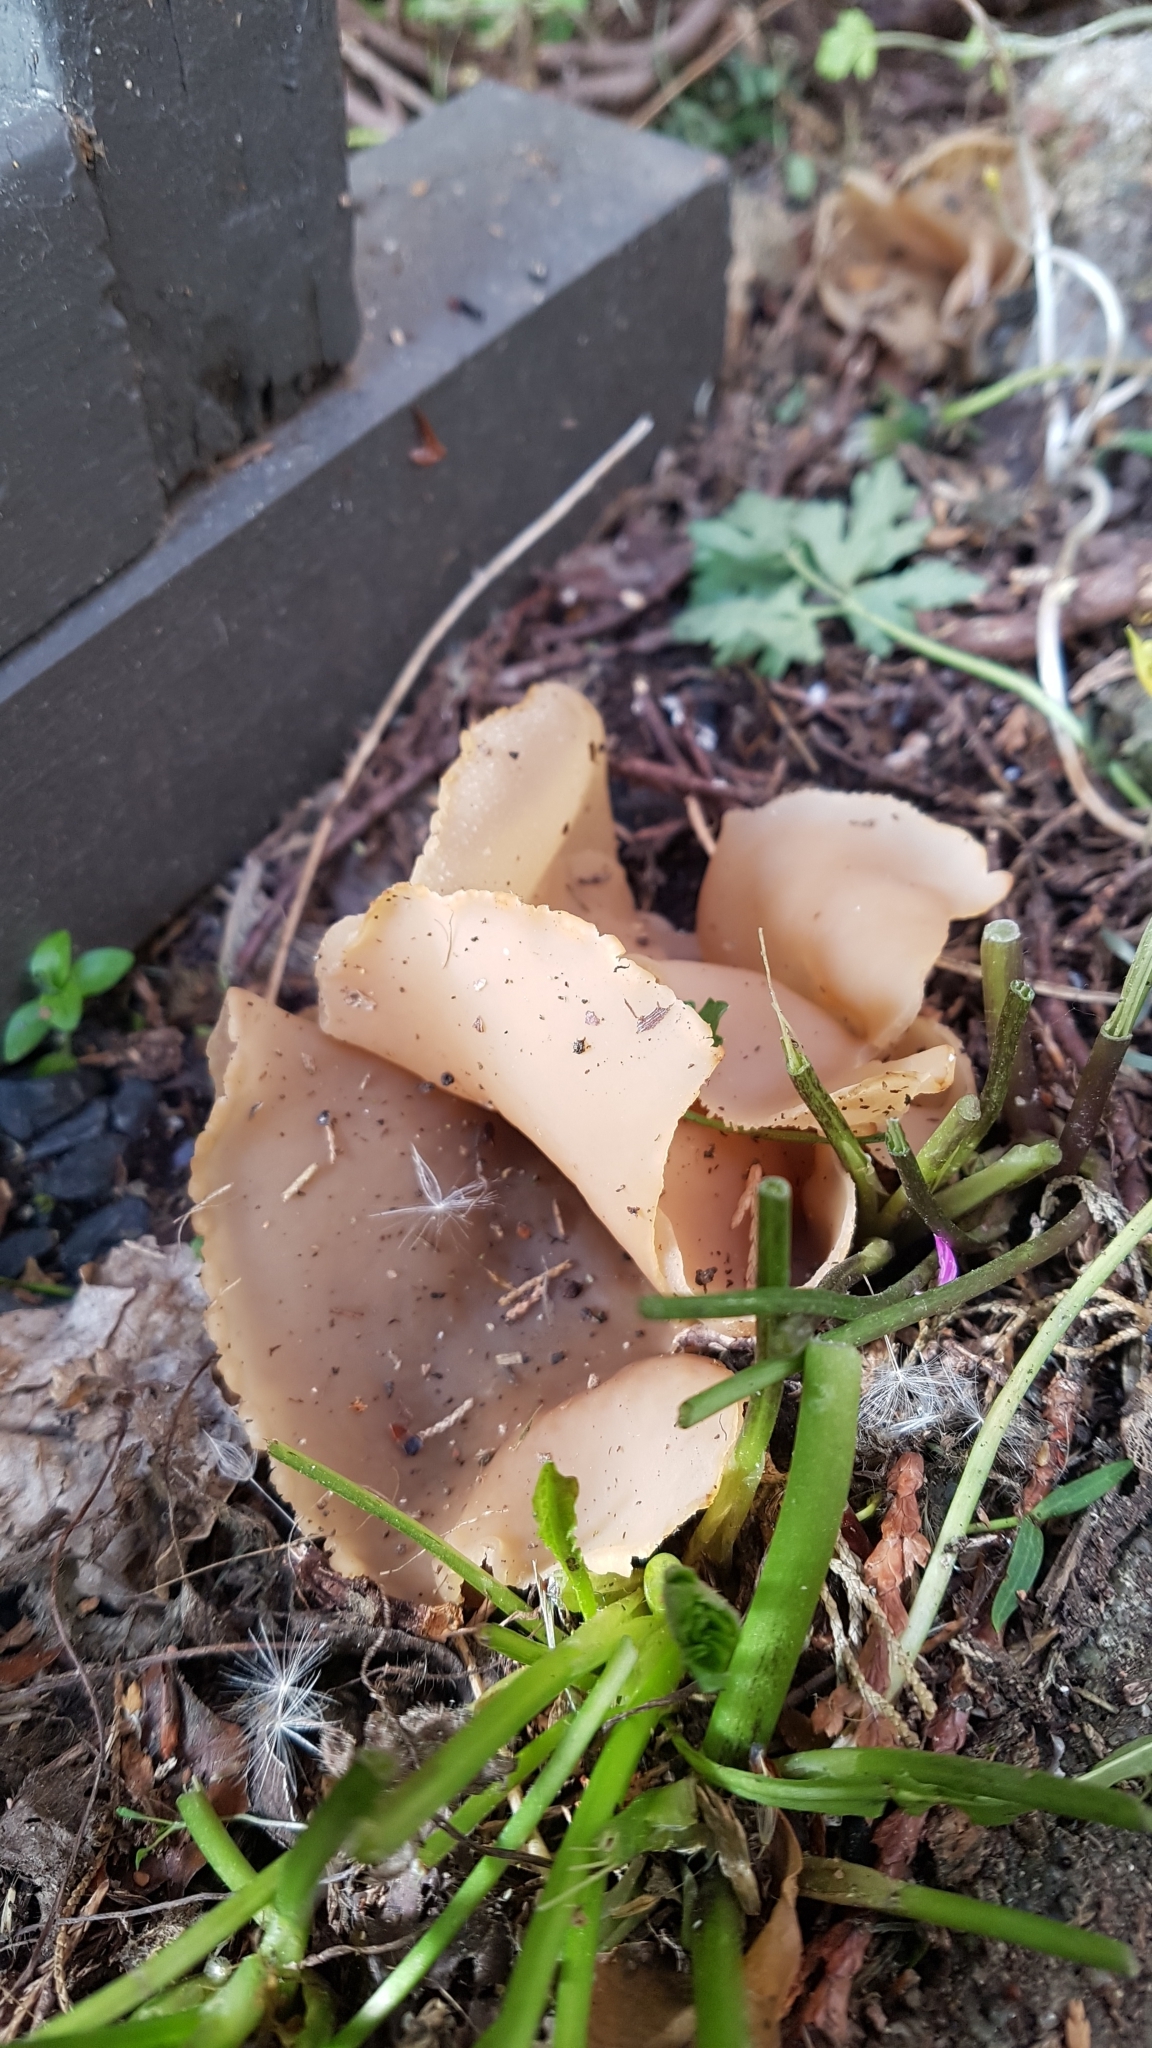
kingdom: Fungi
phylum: Ascomycota
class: Pezizomycetes
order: Pezizales
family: Pezizaceae
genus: Peziza
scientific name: Peziza varia
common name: Layered cup
